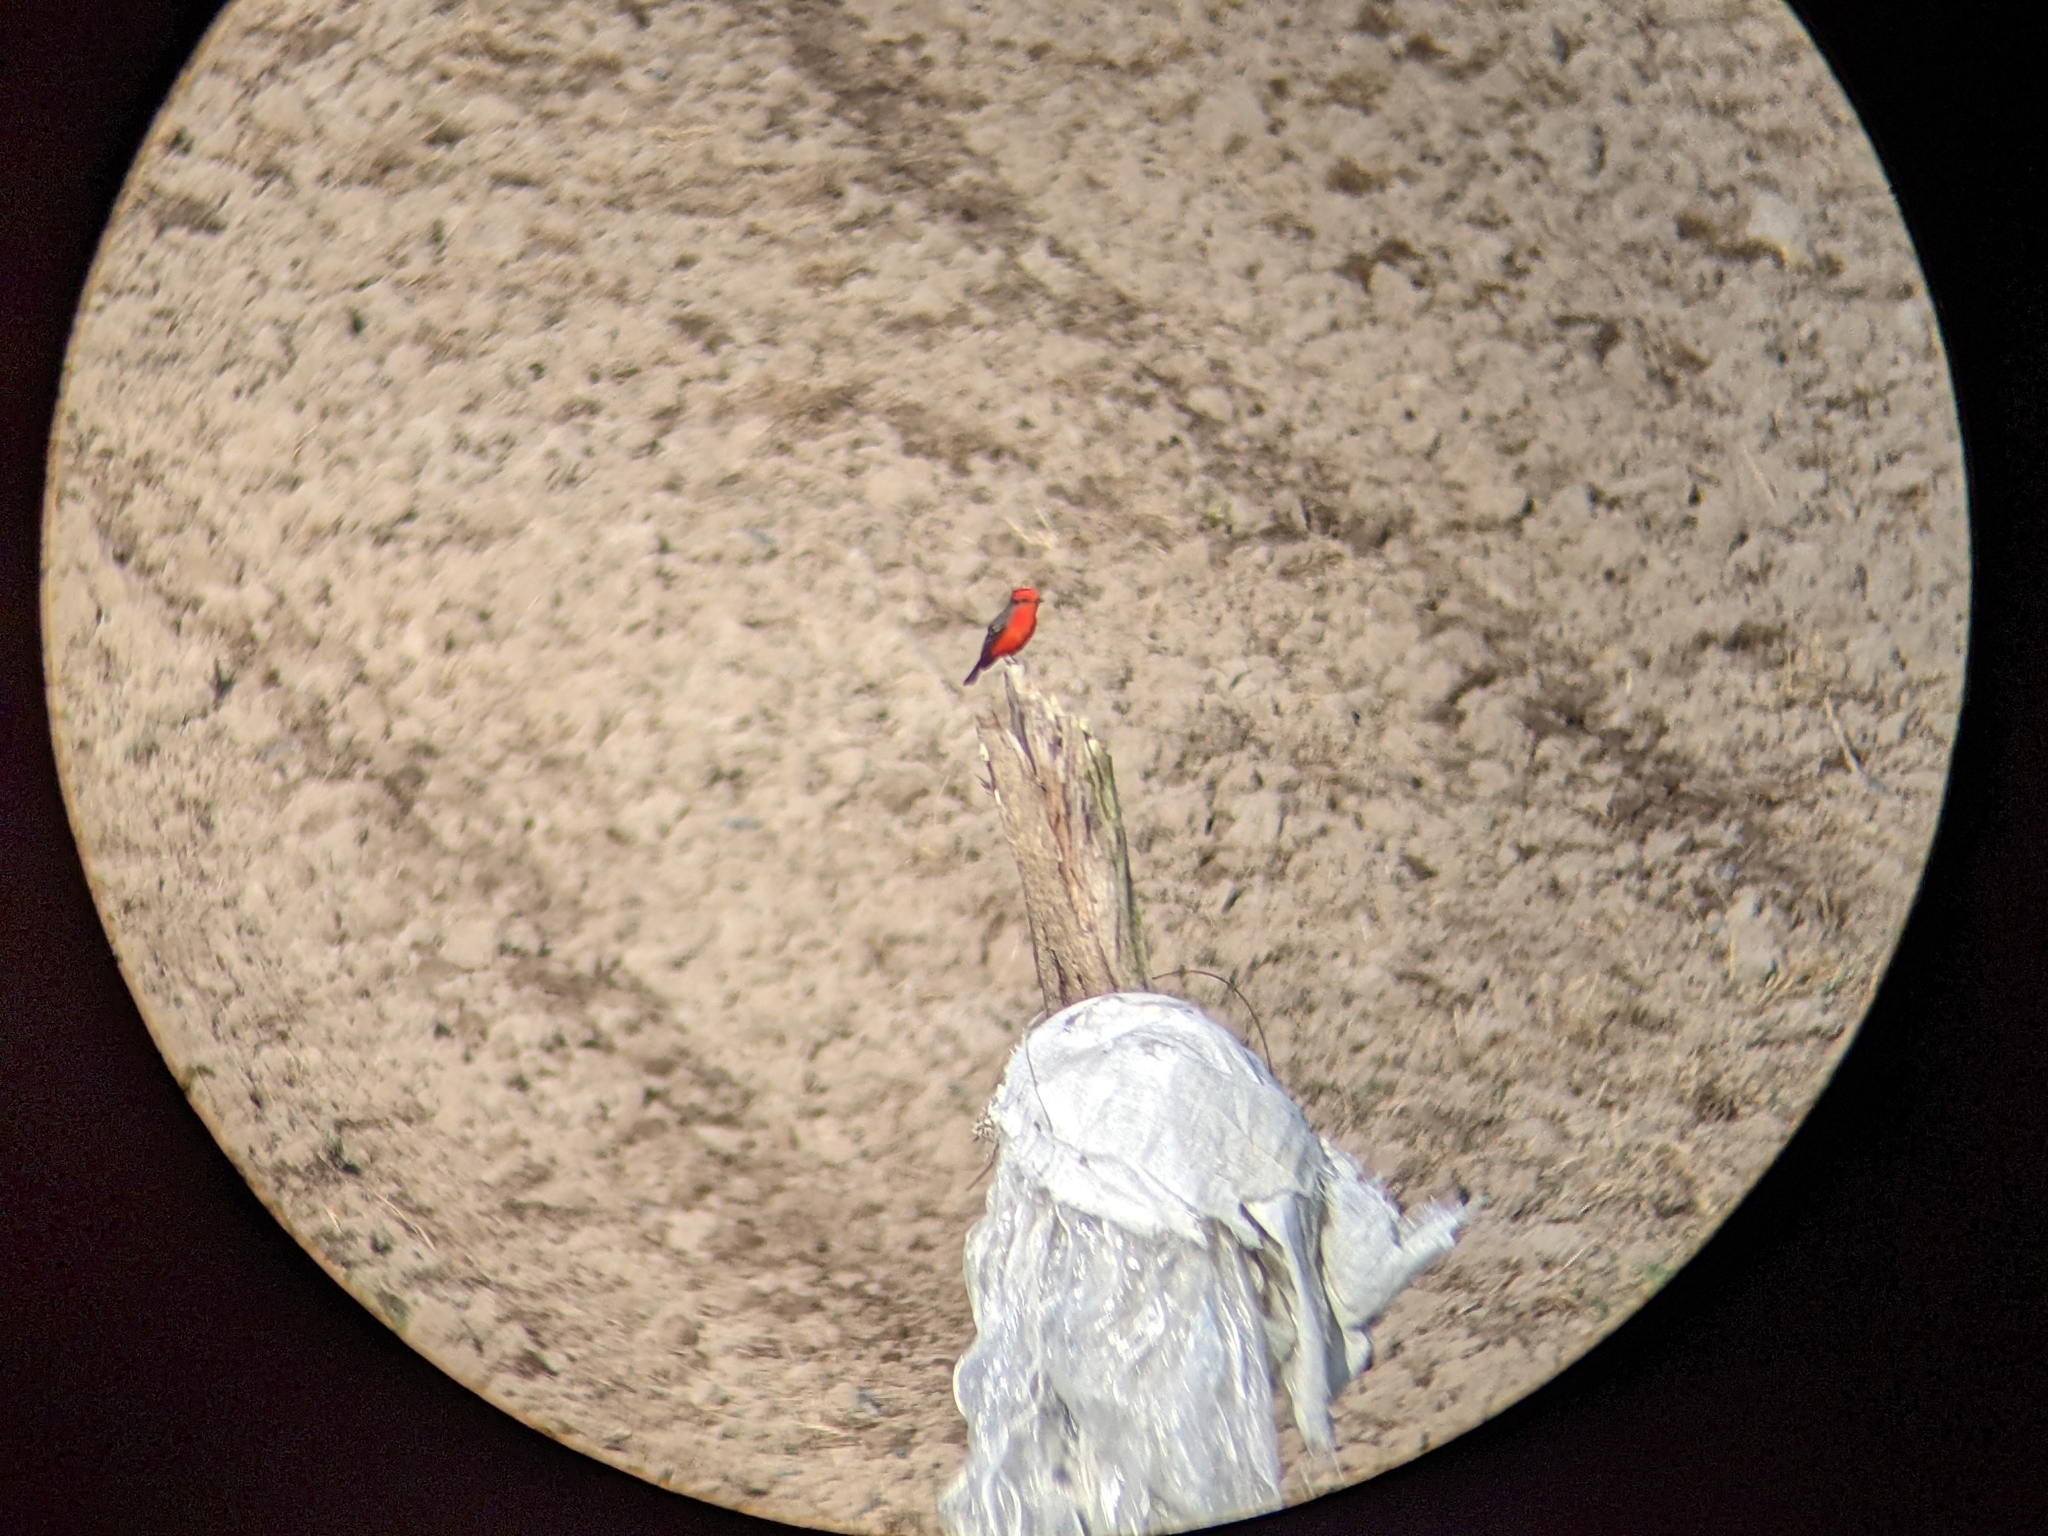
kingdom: Animalia
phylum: Chordata
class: Aves
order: Passeriformes
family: Tyrannidae
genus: Pyrocephalus
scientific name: Pyrocephalus rubinus
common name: Vermilion flycatcher
